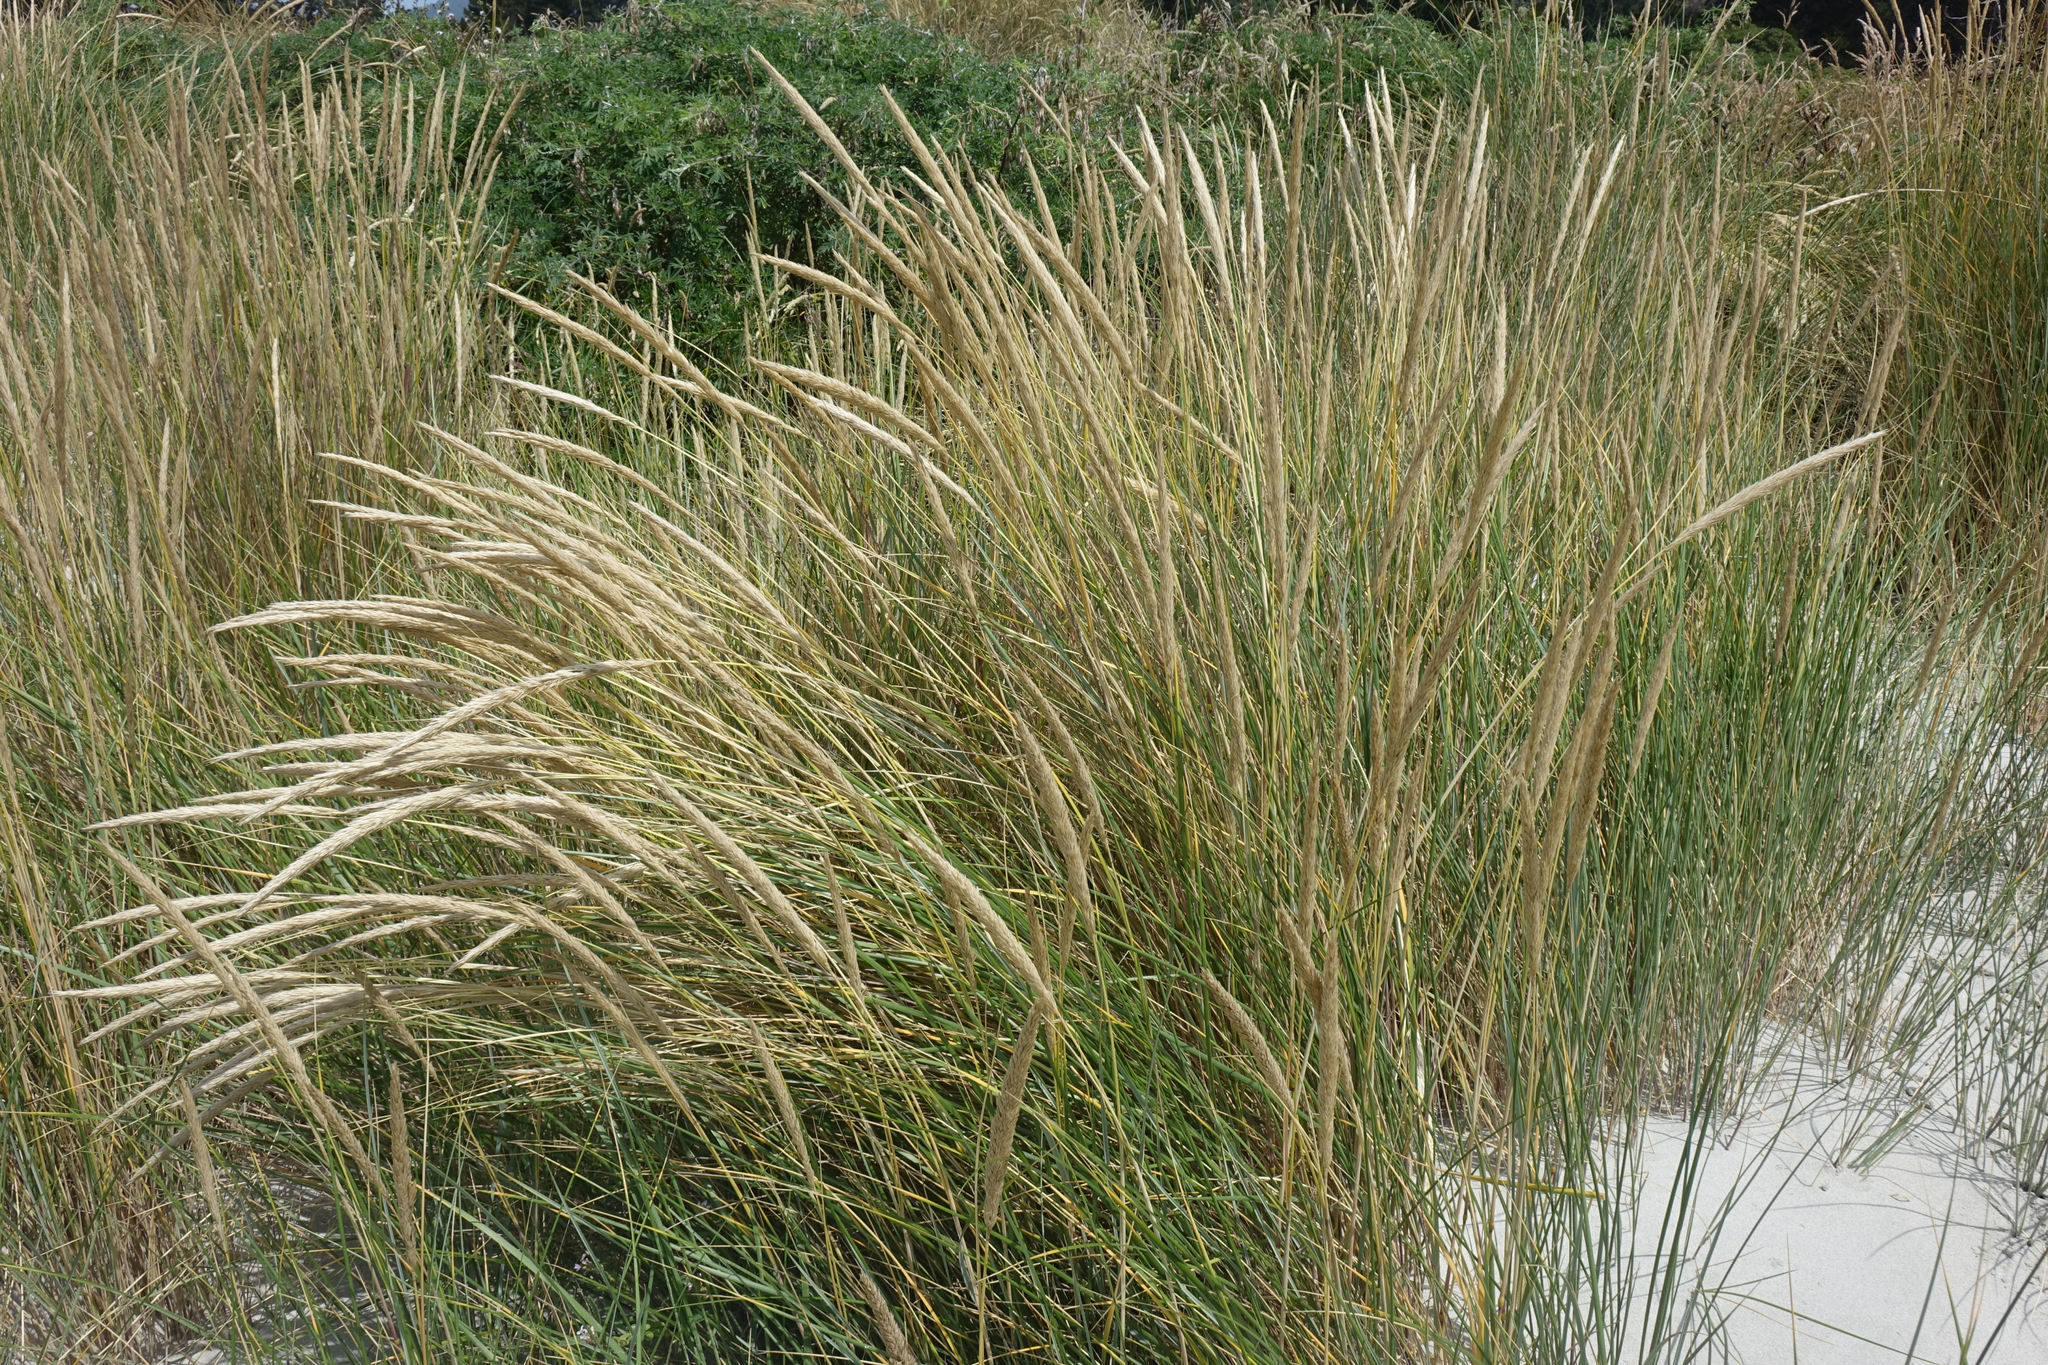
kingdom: Plantae
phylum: Tracheophyta
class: Liliopsida
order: Poales
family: Poaceae
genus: Calamagrostis
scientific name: Calamagrostis arenaria
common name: European beachgrass
